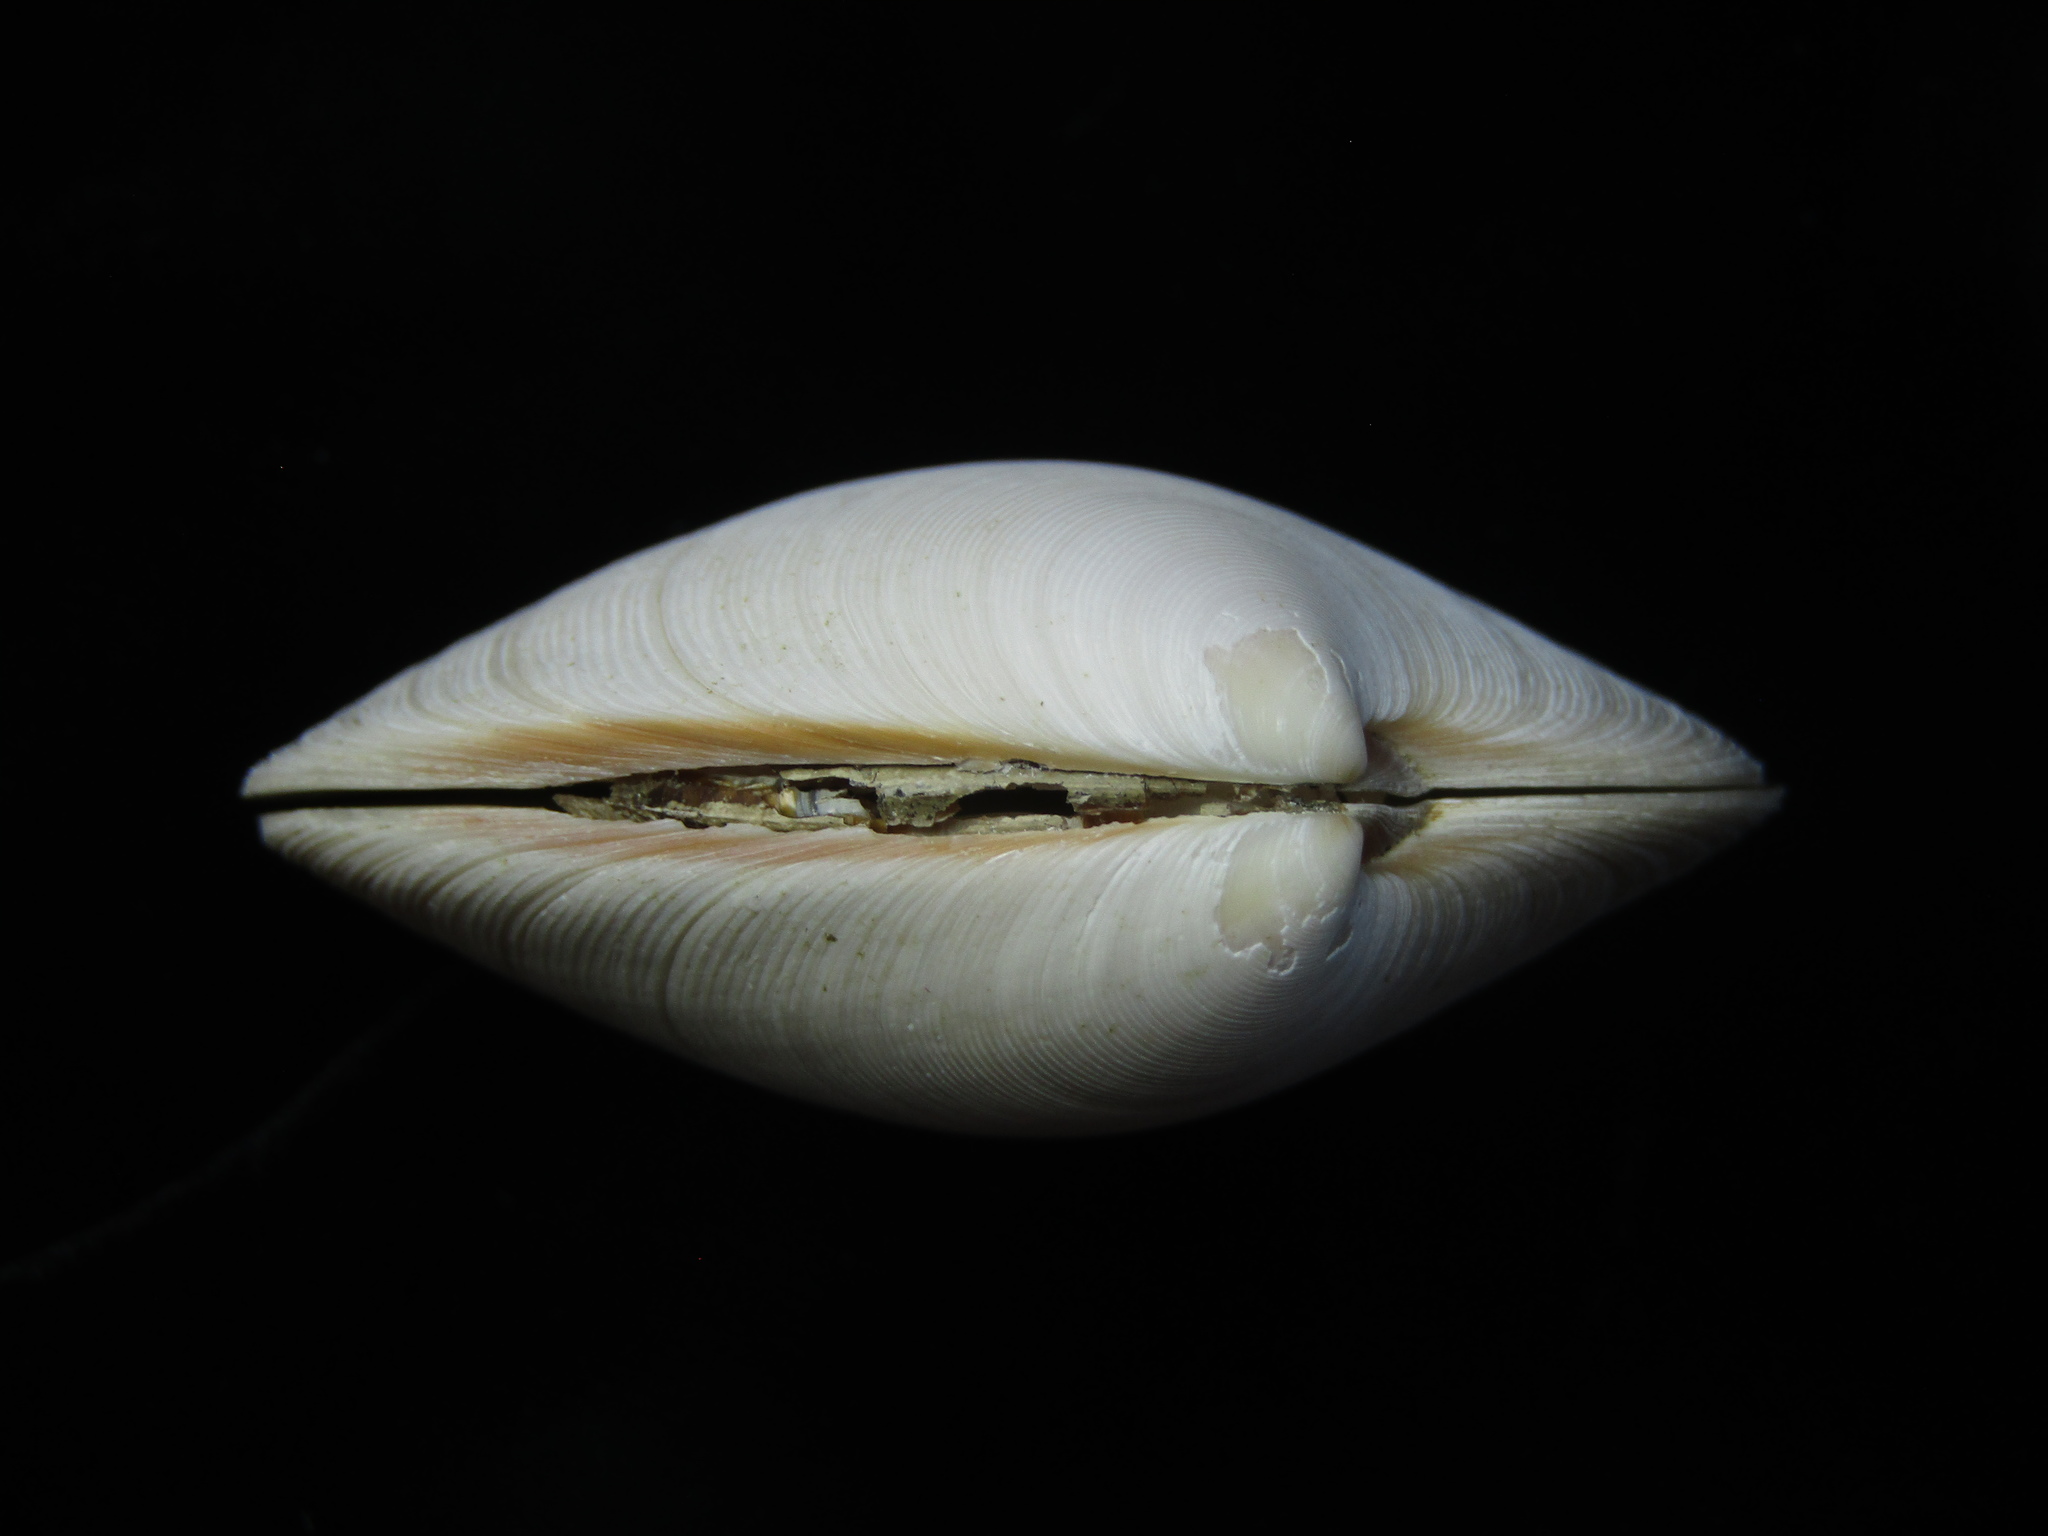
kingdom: Animalia
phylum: Mollusca
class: Bivalvia
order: Venerida
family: Veneridae
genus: Dosinia
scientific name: Dosinia subrosea
